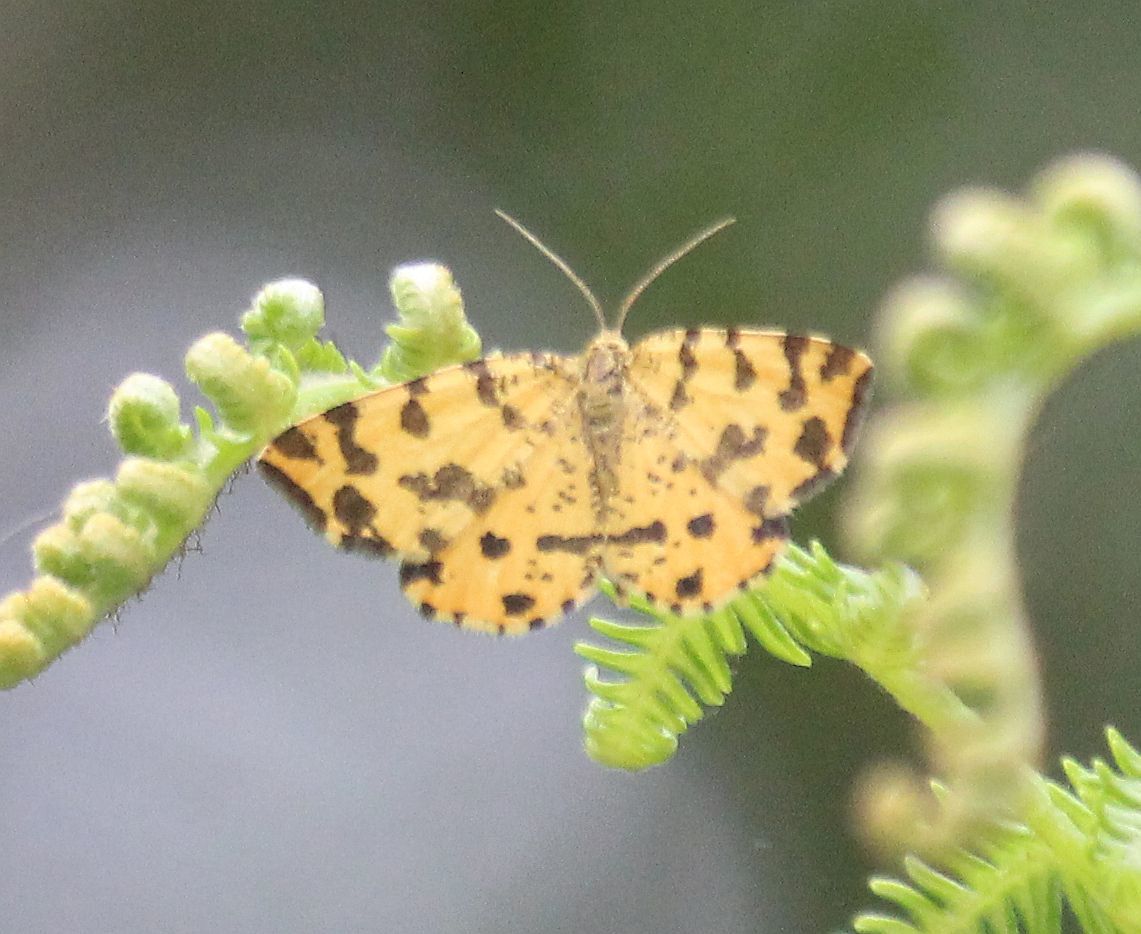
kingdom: Animalia
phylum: Arthropoda
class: Insecta
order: Lepidoptera
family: Geometridae
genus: Pseudopanthera
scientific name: Pseudopanthera macularia
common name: Speckled yellow
